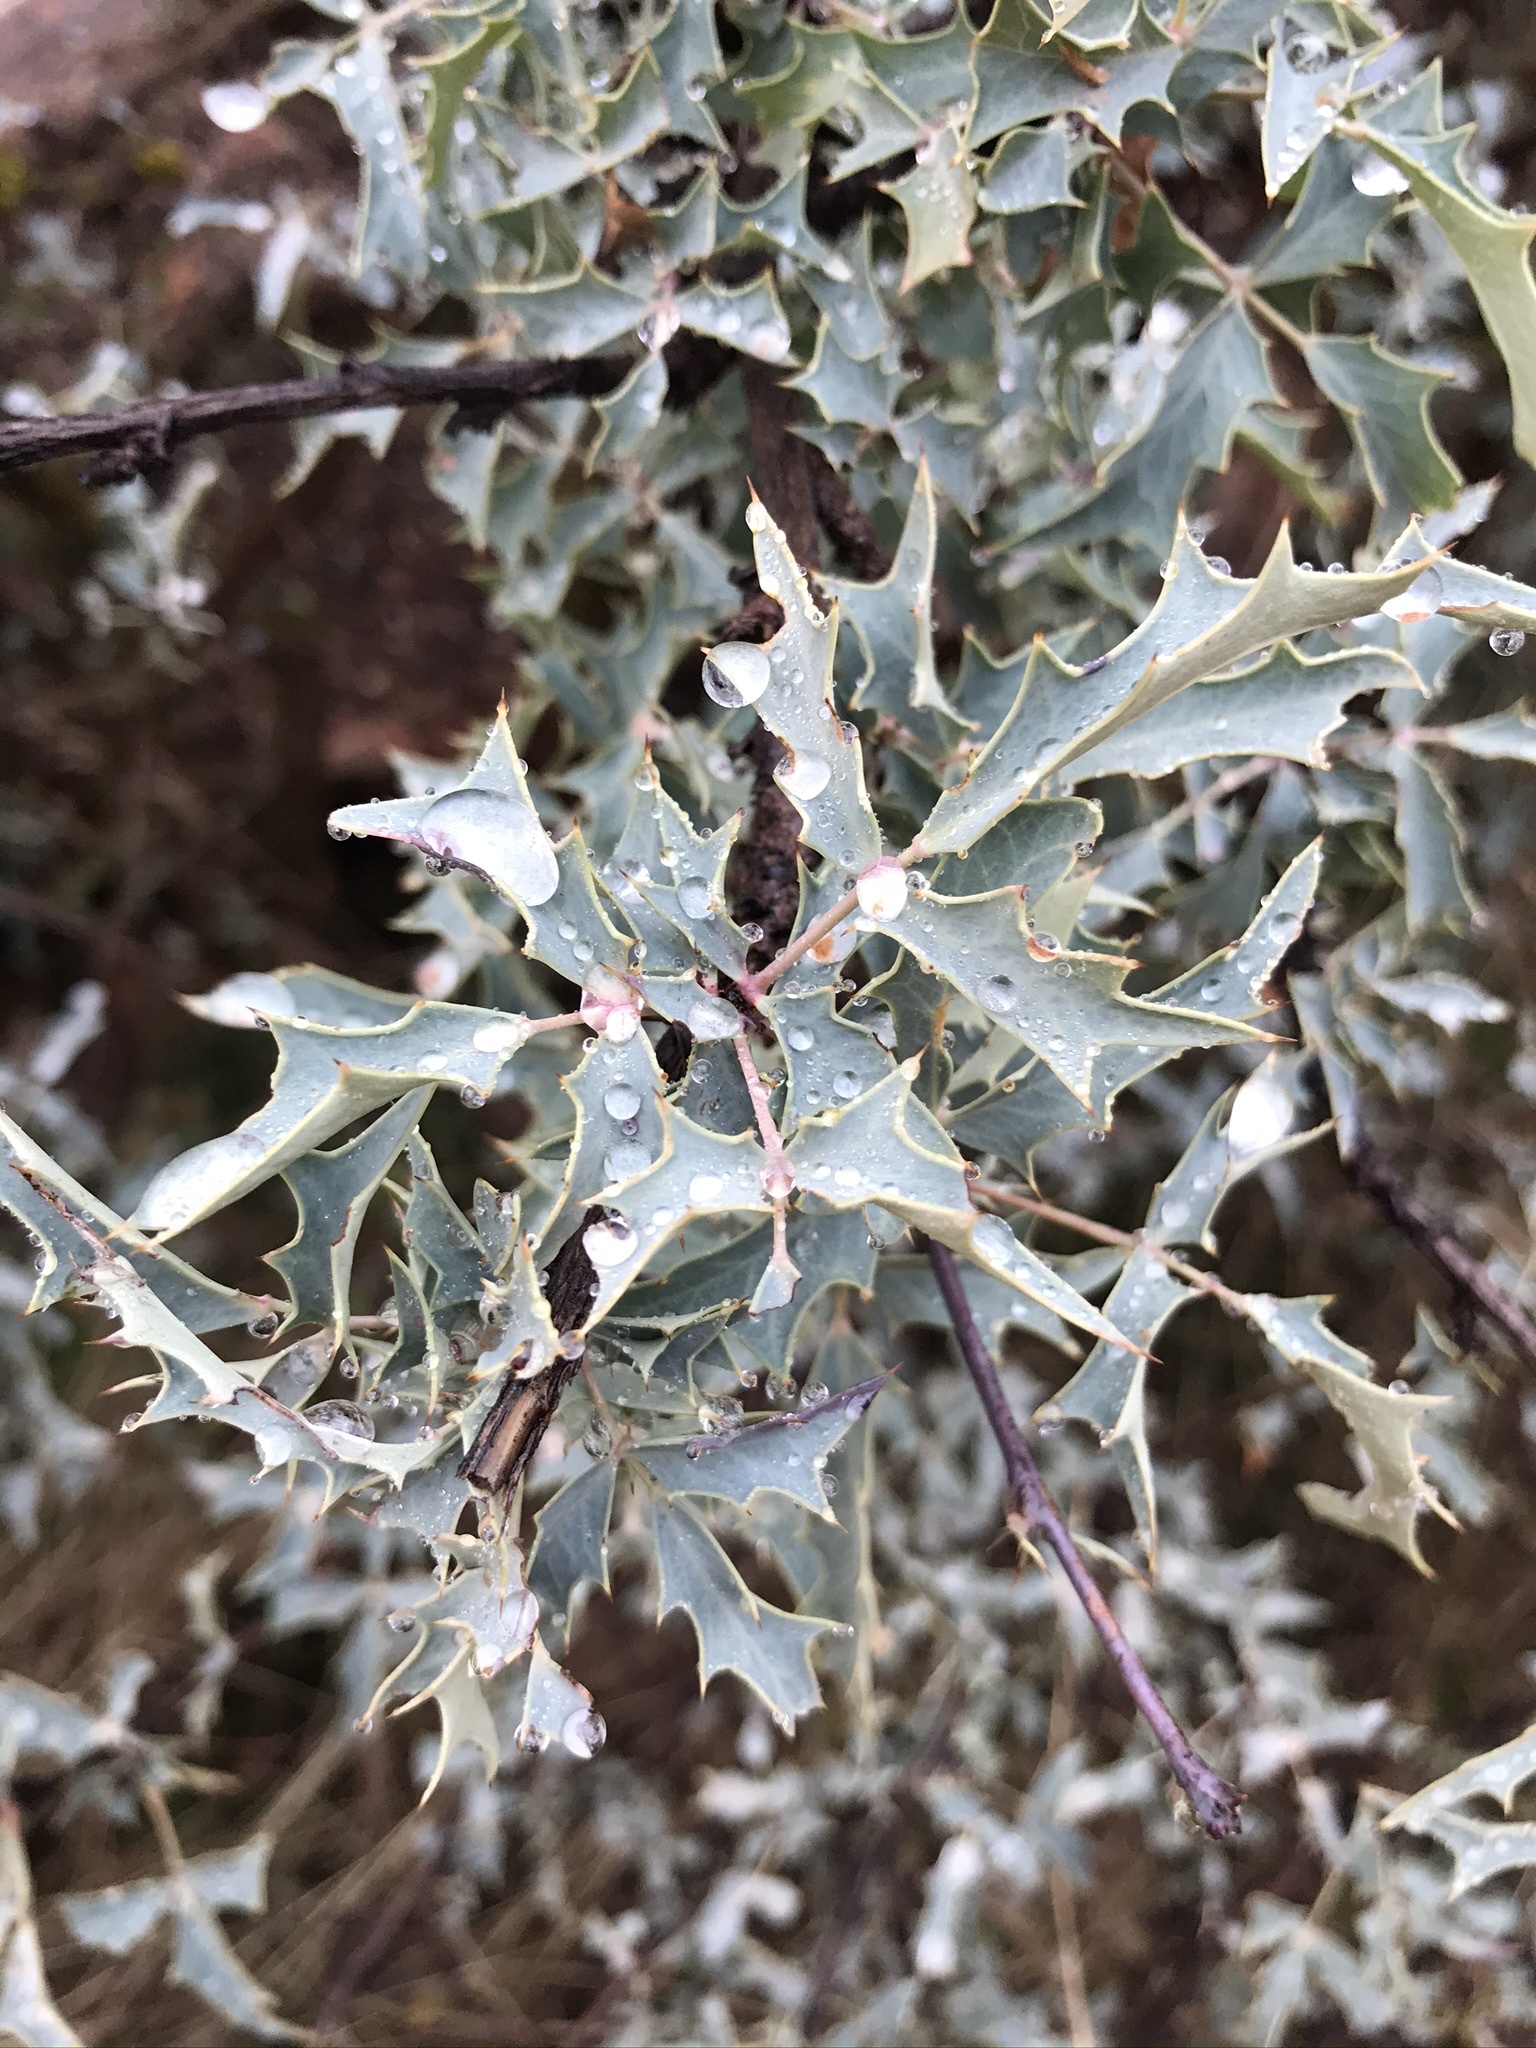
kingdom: Plantae
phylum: Tracheophyta
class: Magnoliopsida
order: Ranunculales
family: Berberidaceae
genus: Alloberberis
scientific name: Alloberberis haematocarpa
